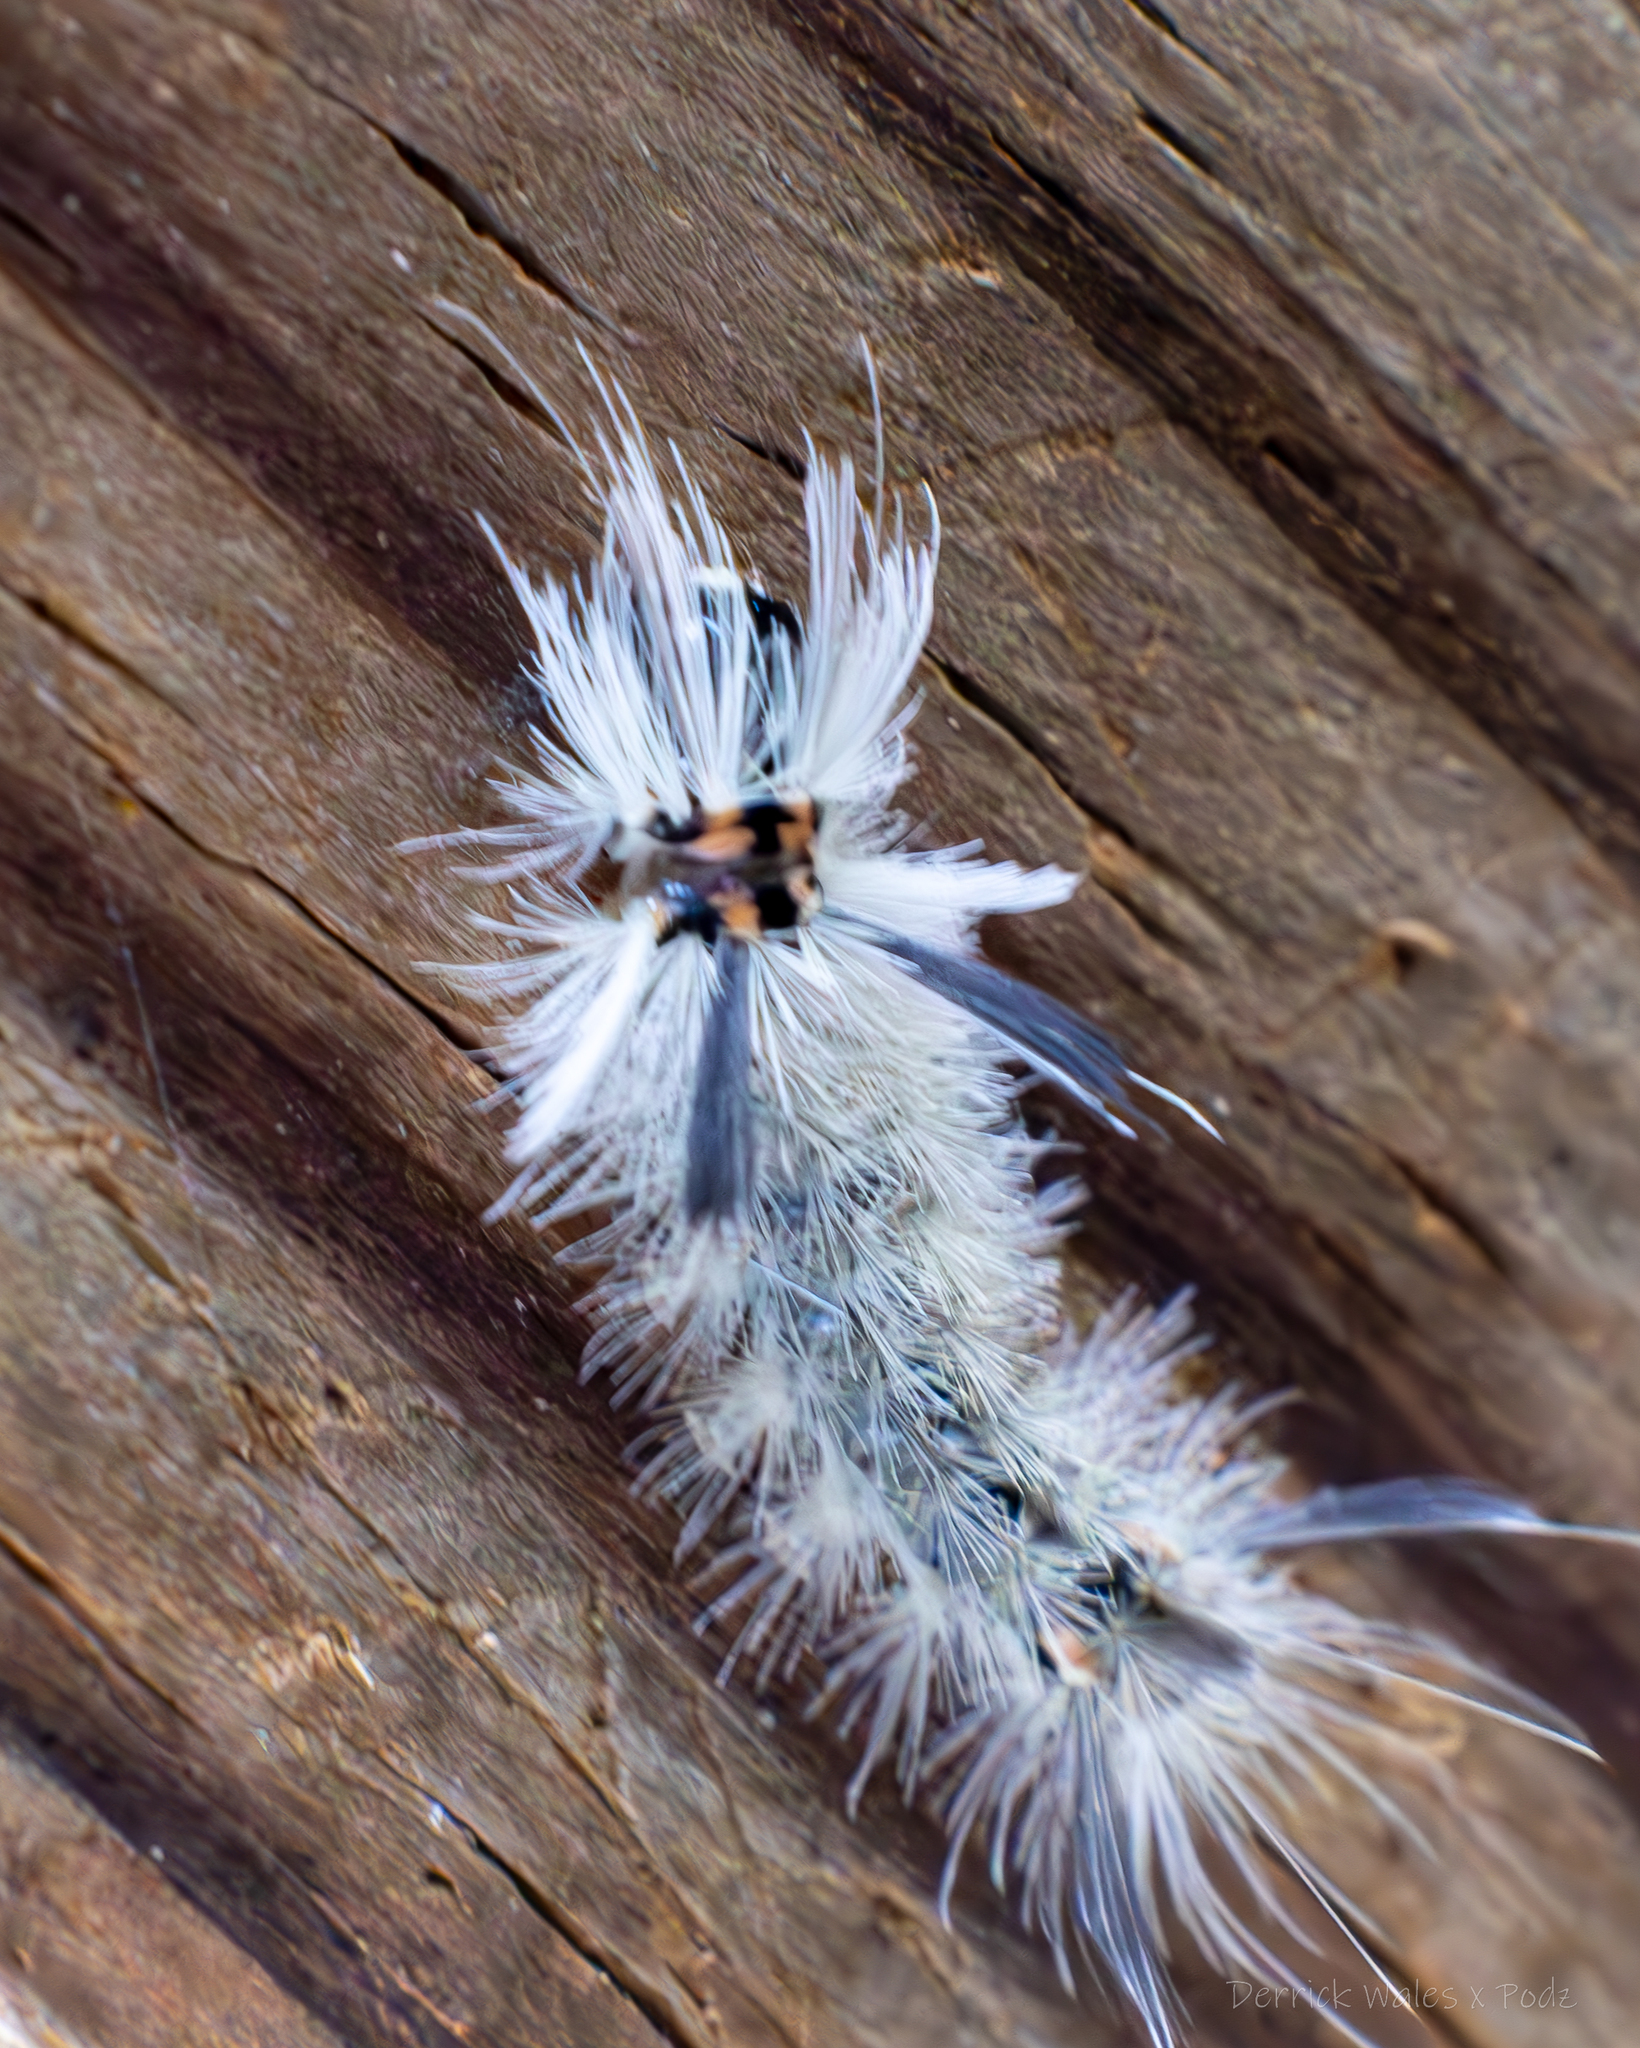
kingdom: Animalia
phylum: Arthropoda
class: Insecta
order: Lepidoptera
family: Erebidae
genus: Halysidota
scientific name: Halysidota tessellaris
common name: Banded tussock moth
